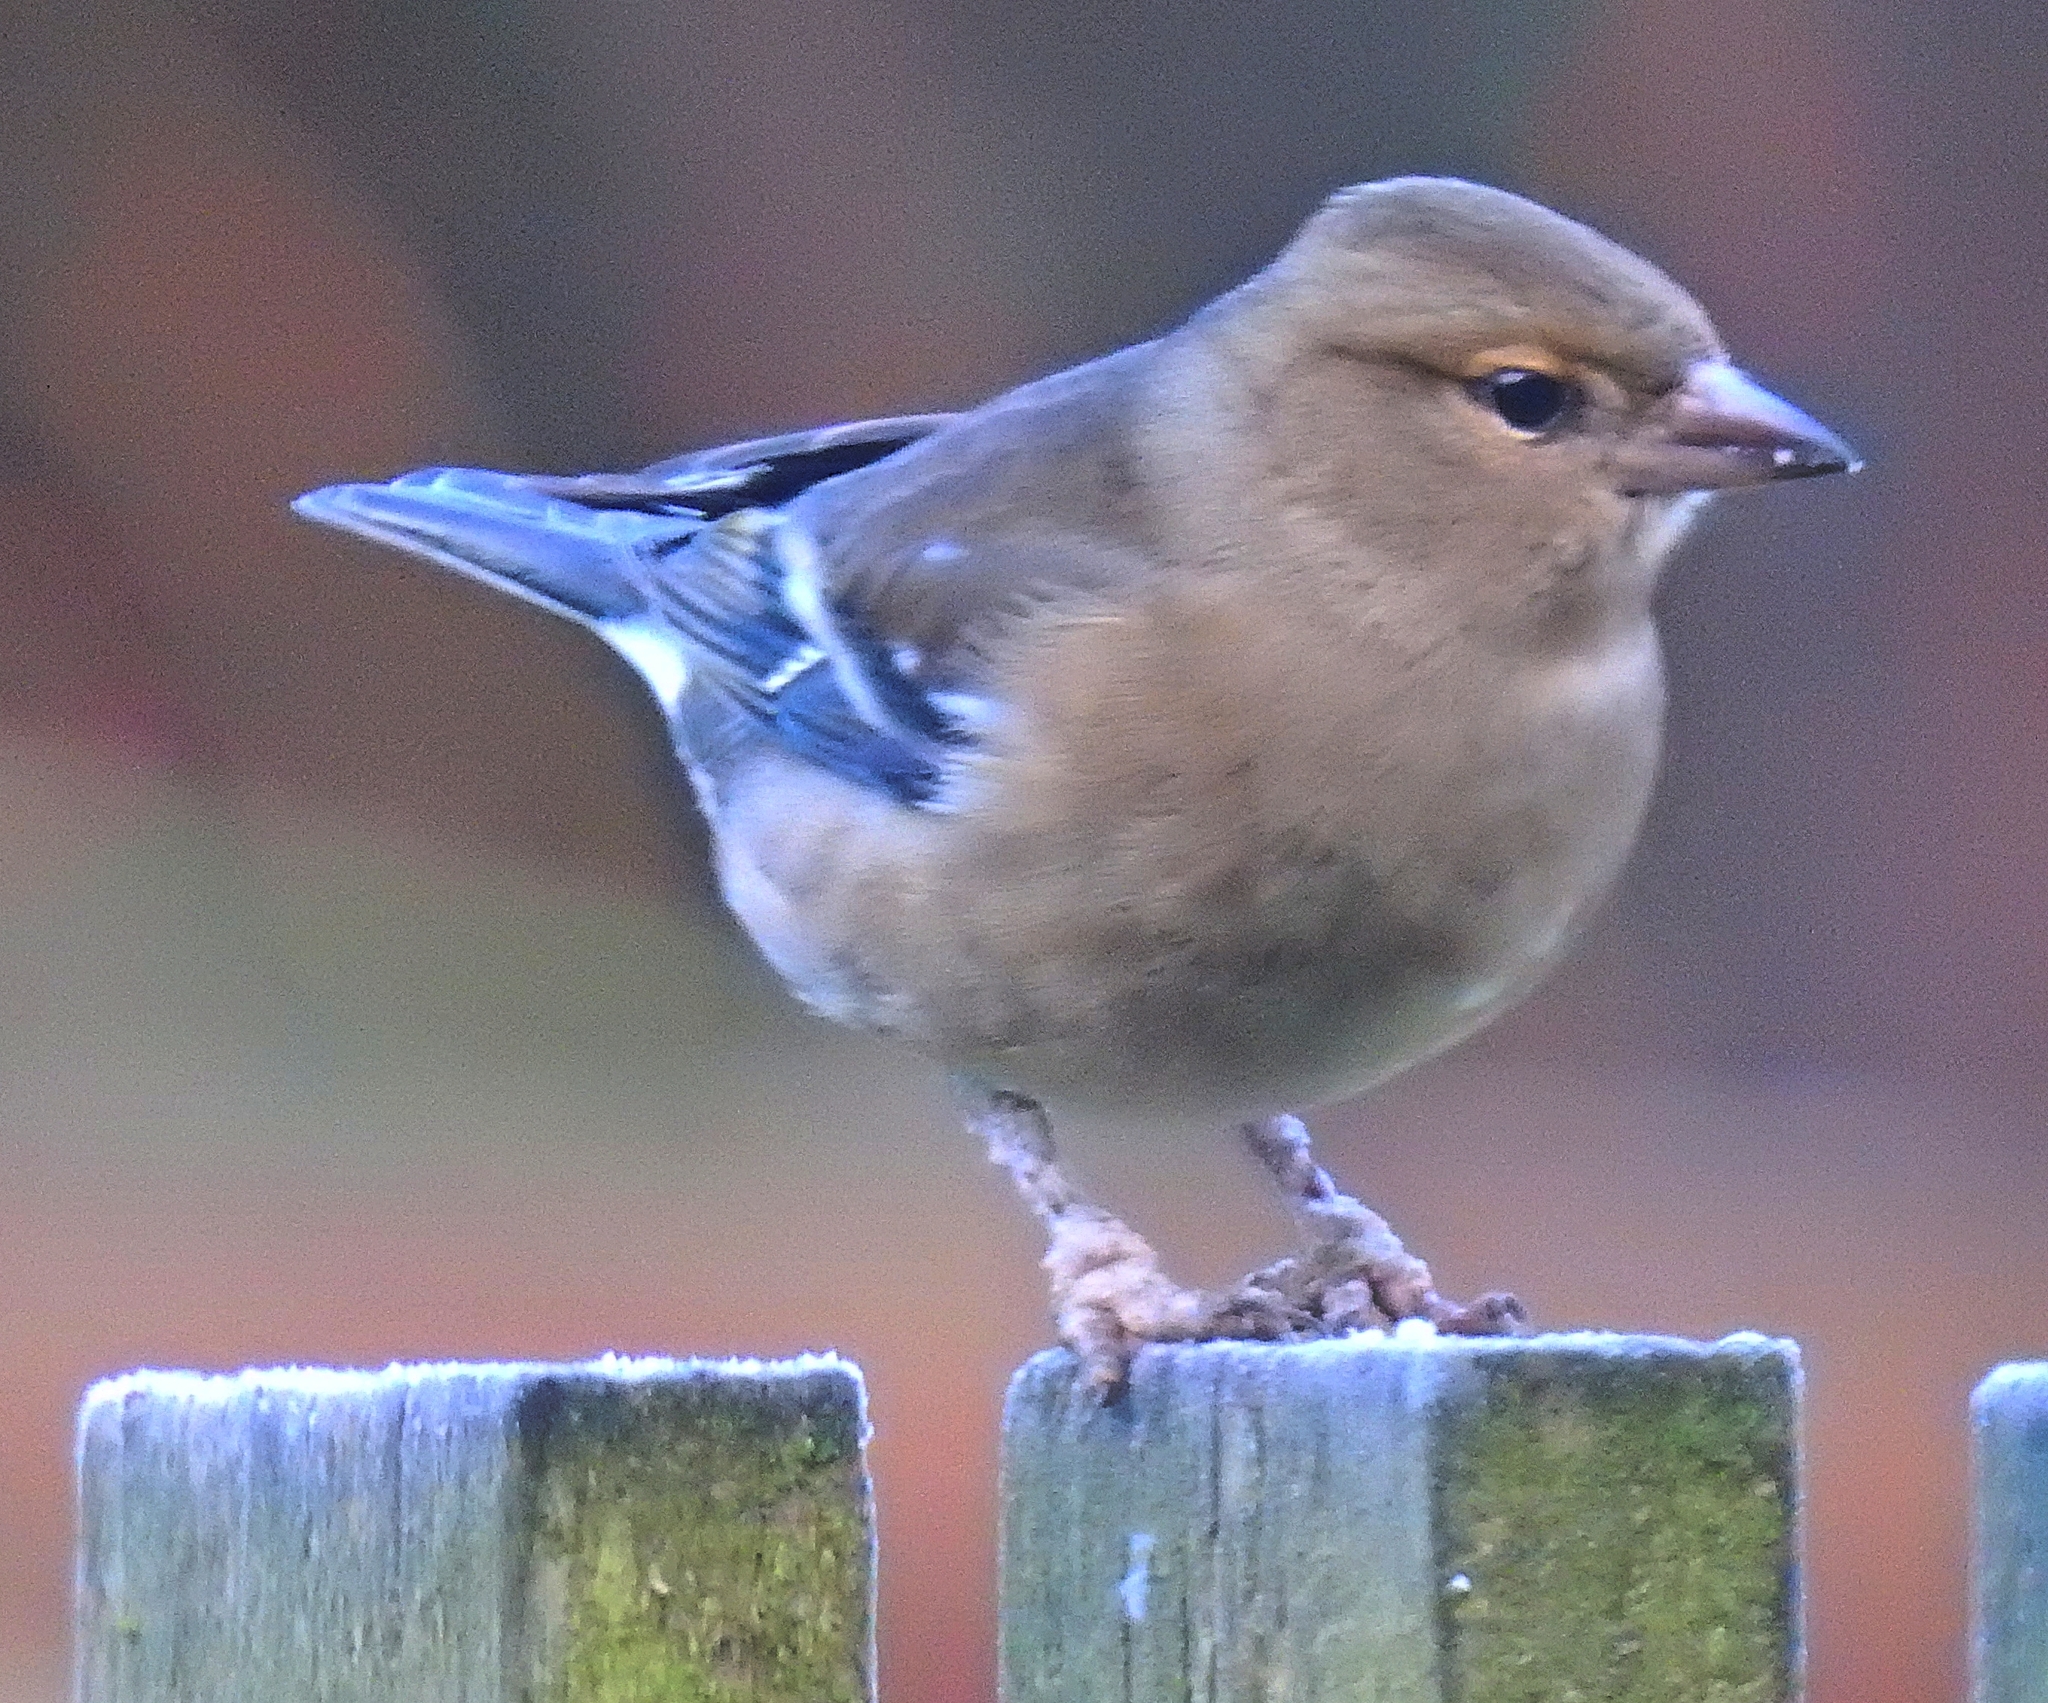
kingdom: Viruses
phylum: Cossaviricota
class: Papovaviricetes
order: Zurhausenvirales
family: Papillomaviridae
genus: Etapapillomavirus
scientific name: Etapapillomavirus
